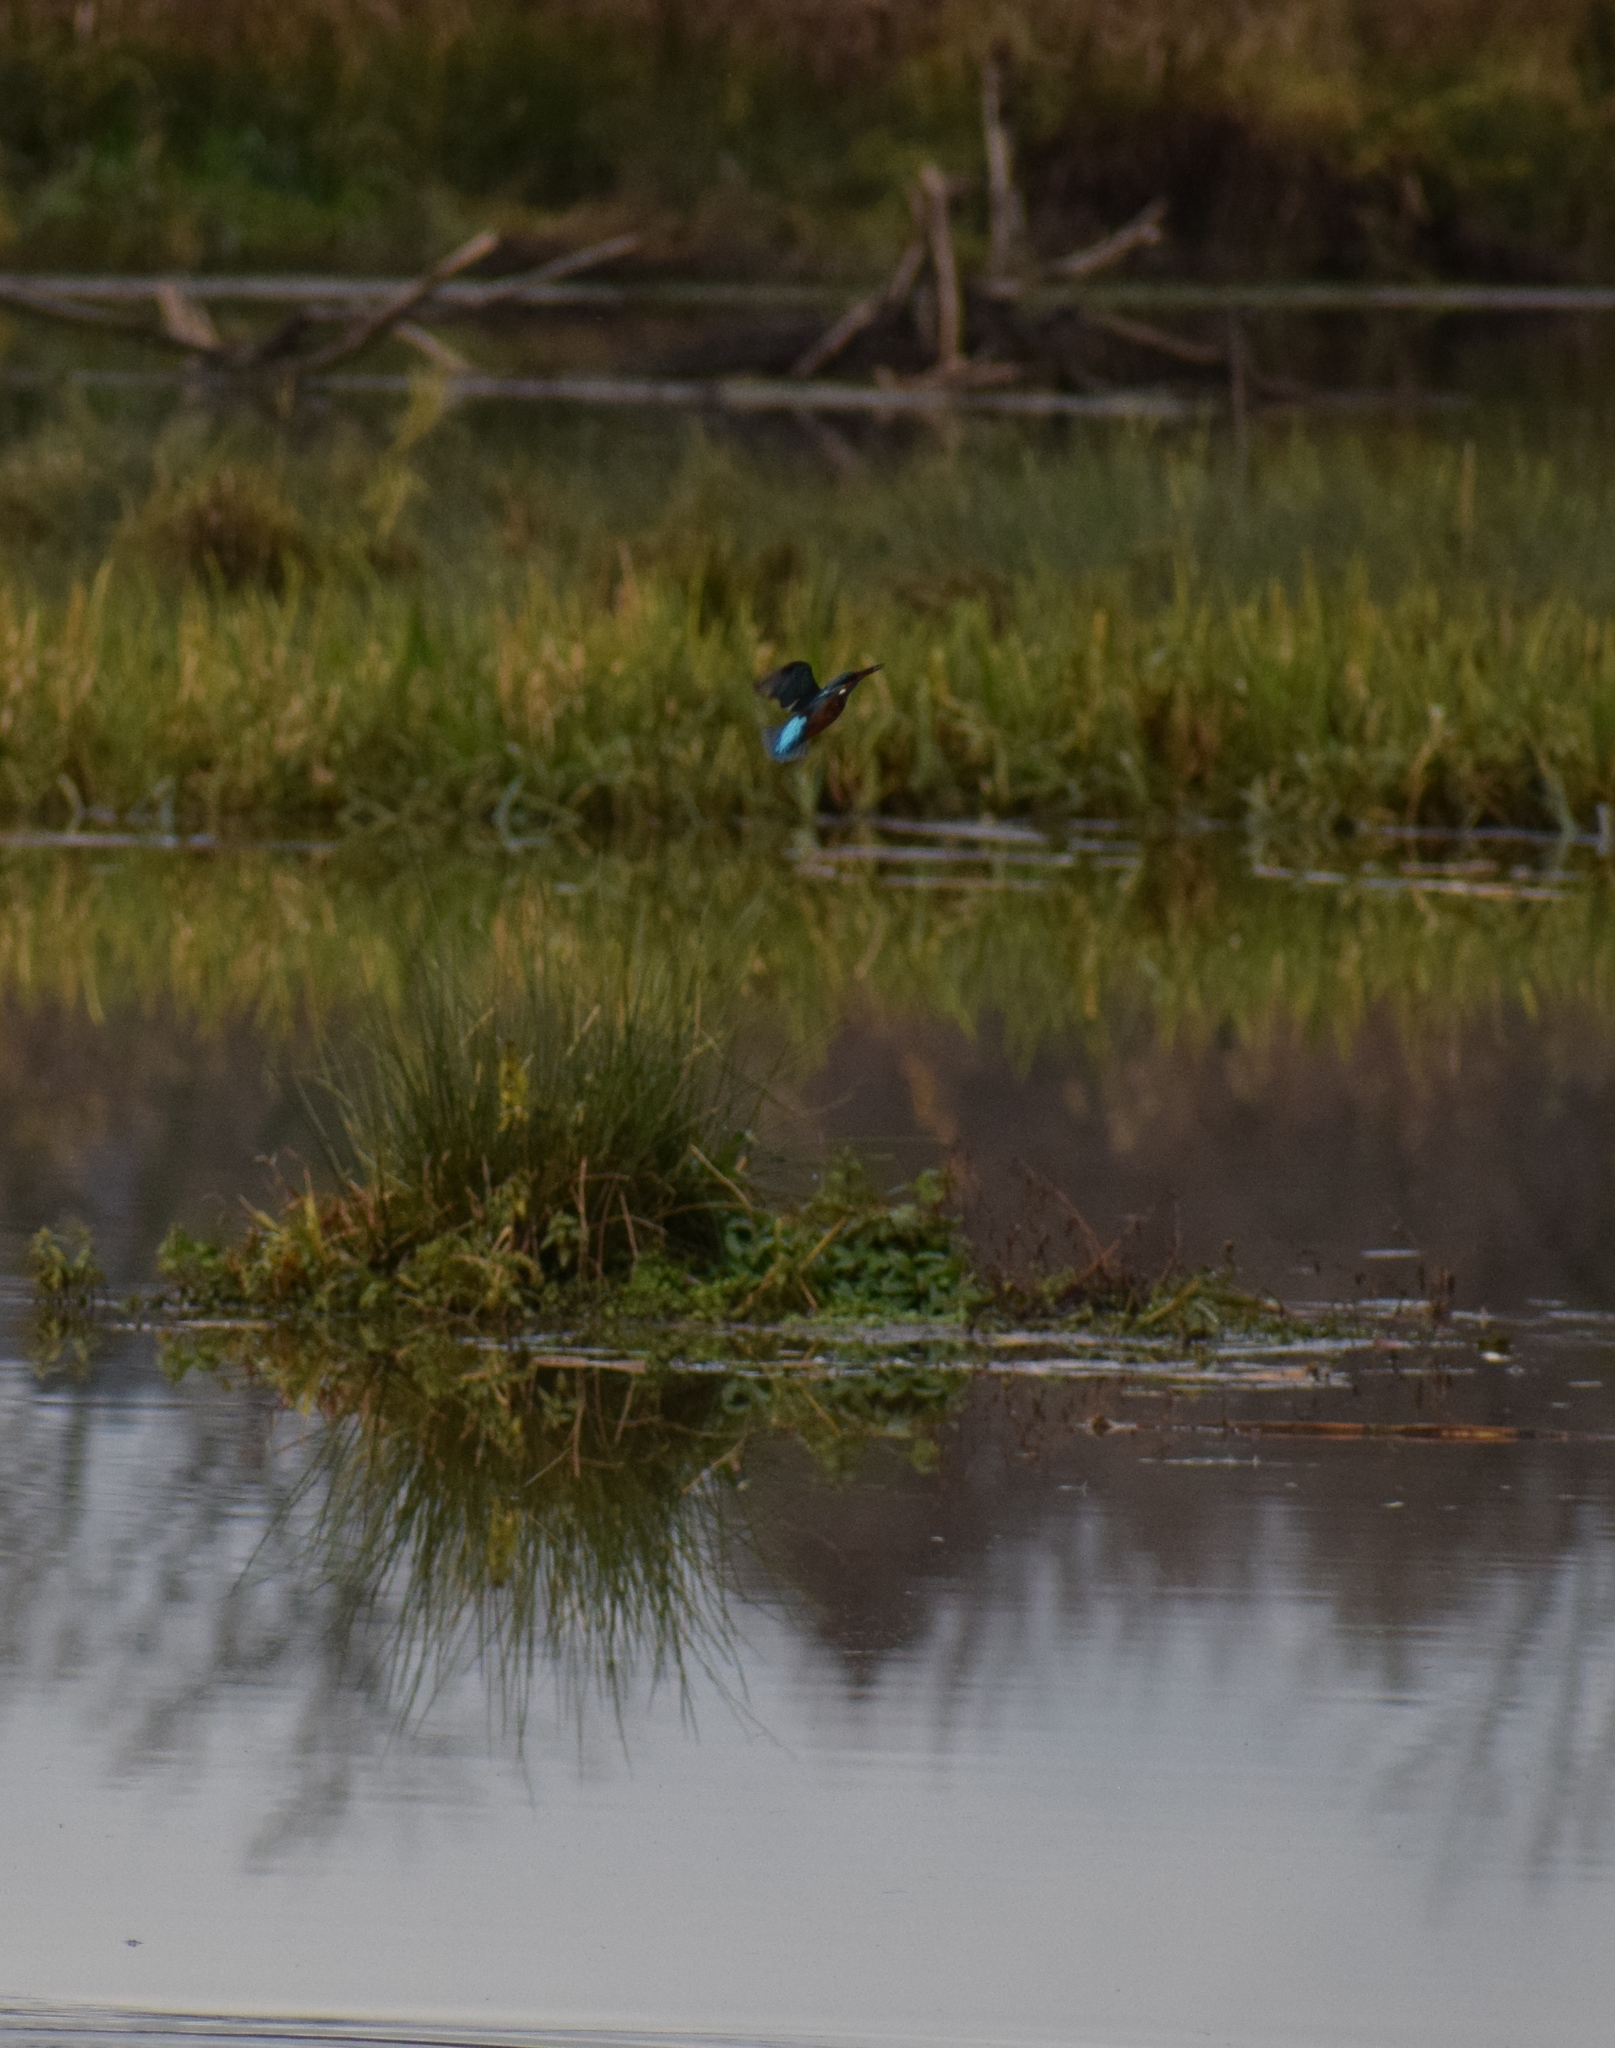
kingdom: Animalia
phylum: Chordata
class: Aves
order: Coraciiformes
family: Alcedinidae
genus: Alcedo
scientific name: Alcedo atthis
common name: Common kingfisher
